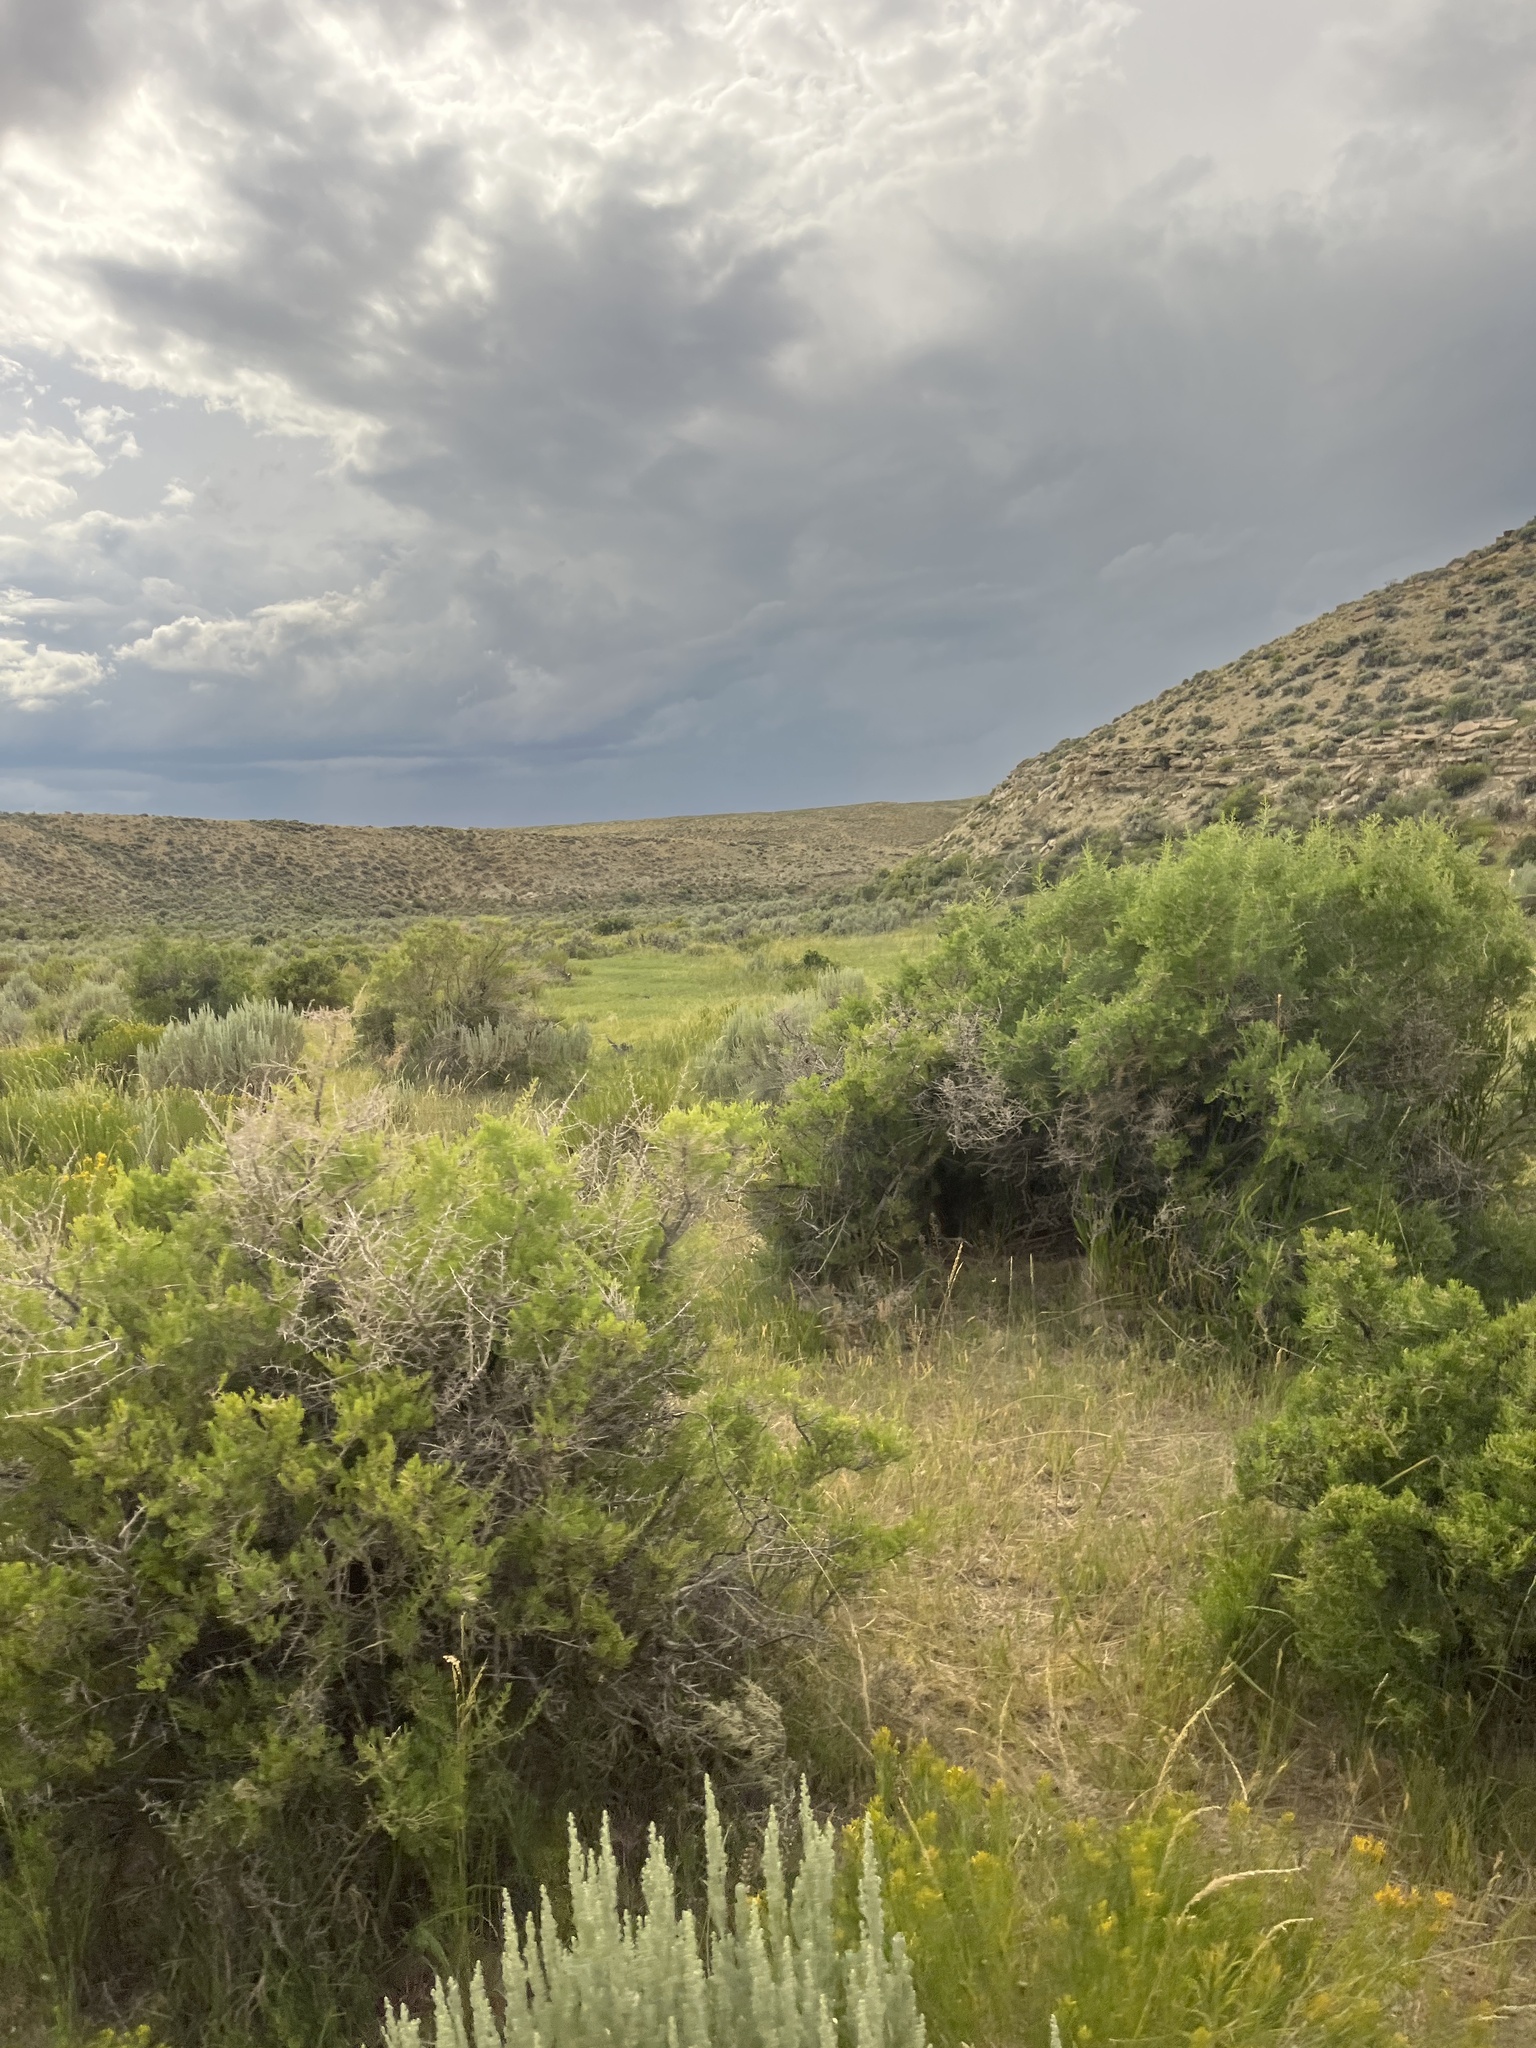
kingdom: Plantae
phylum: Tracheophyta
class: Magnoliopsida
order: Caryophyllales
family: Sarcobataceae
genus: Sarcobatus
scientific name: Sarcobatus vermiculatus
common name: Greasewood
